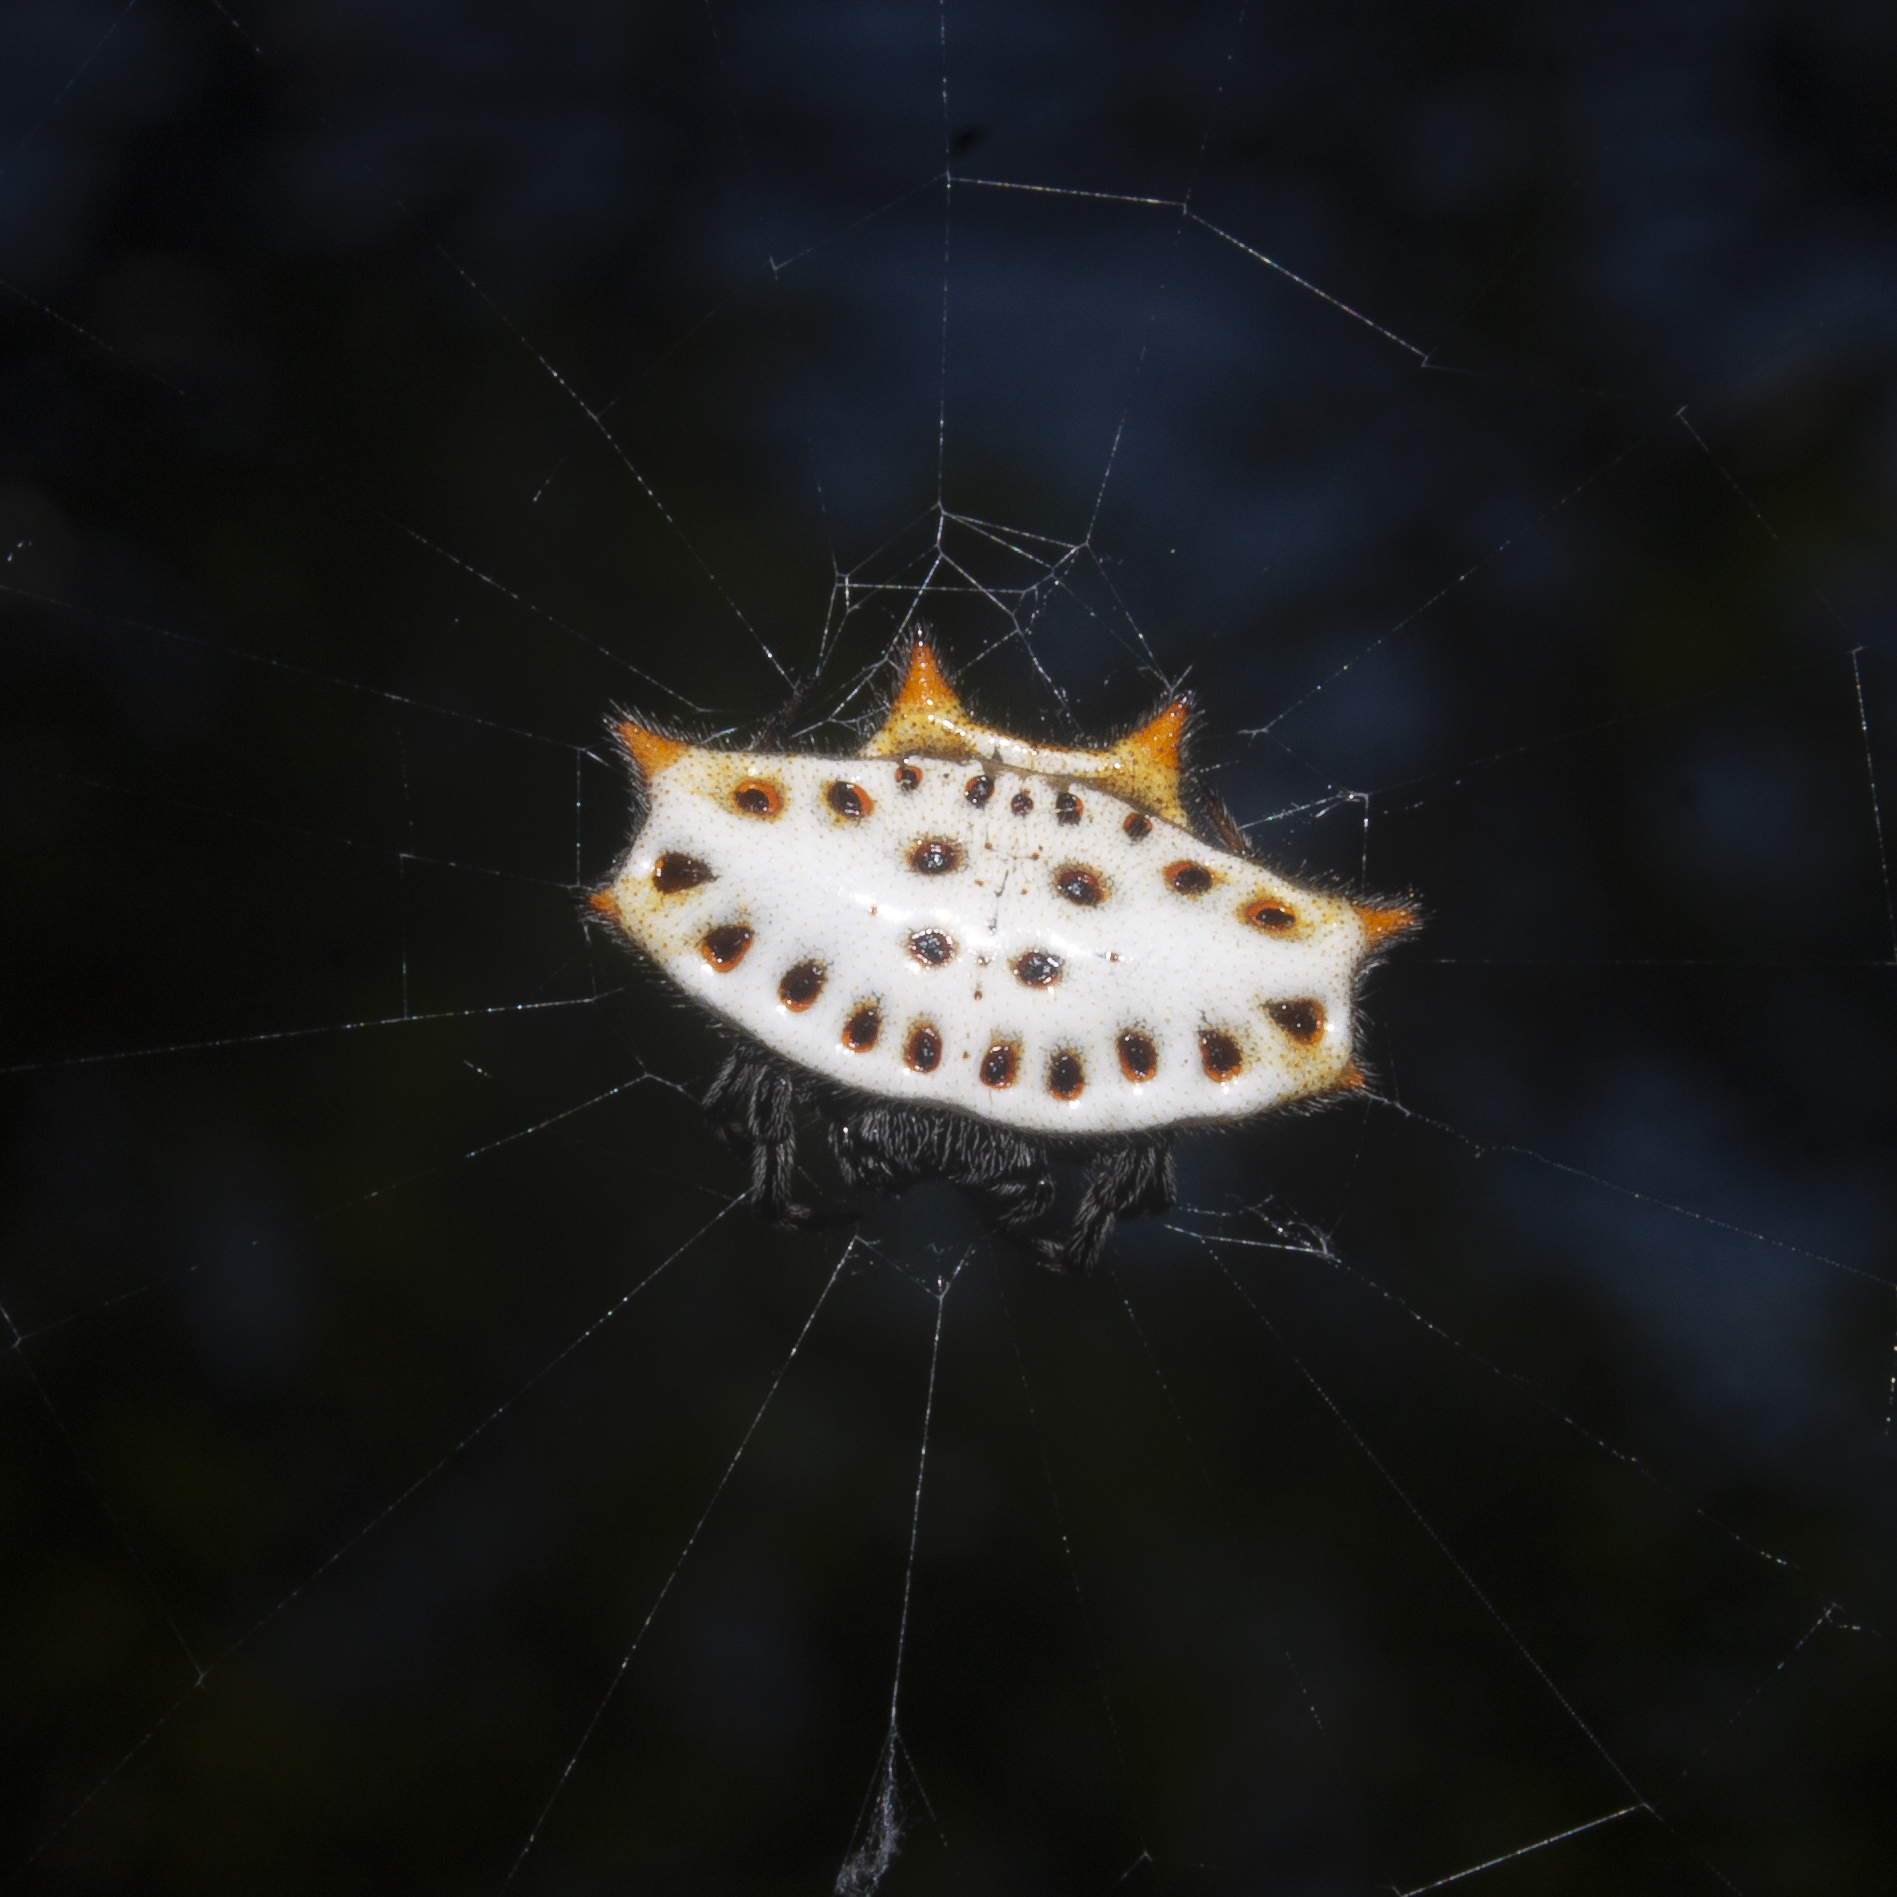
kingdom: Animalia
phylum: Arthropoda
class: Arachnida
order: Araneae
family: Araneidae
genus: Gasteracantha
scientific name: Gasteracantha cancriformis
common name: Orb weavers
